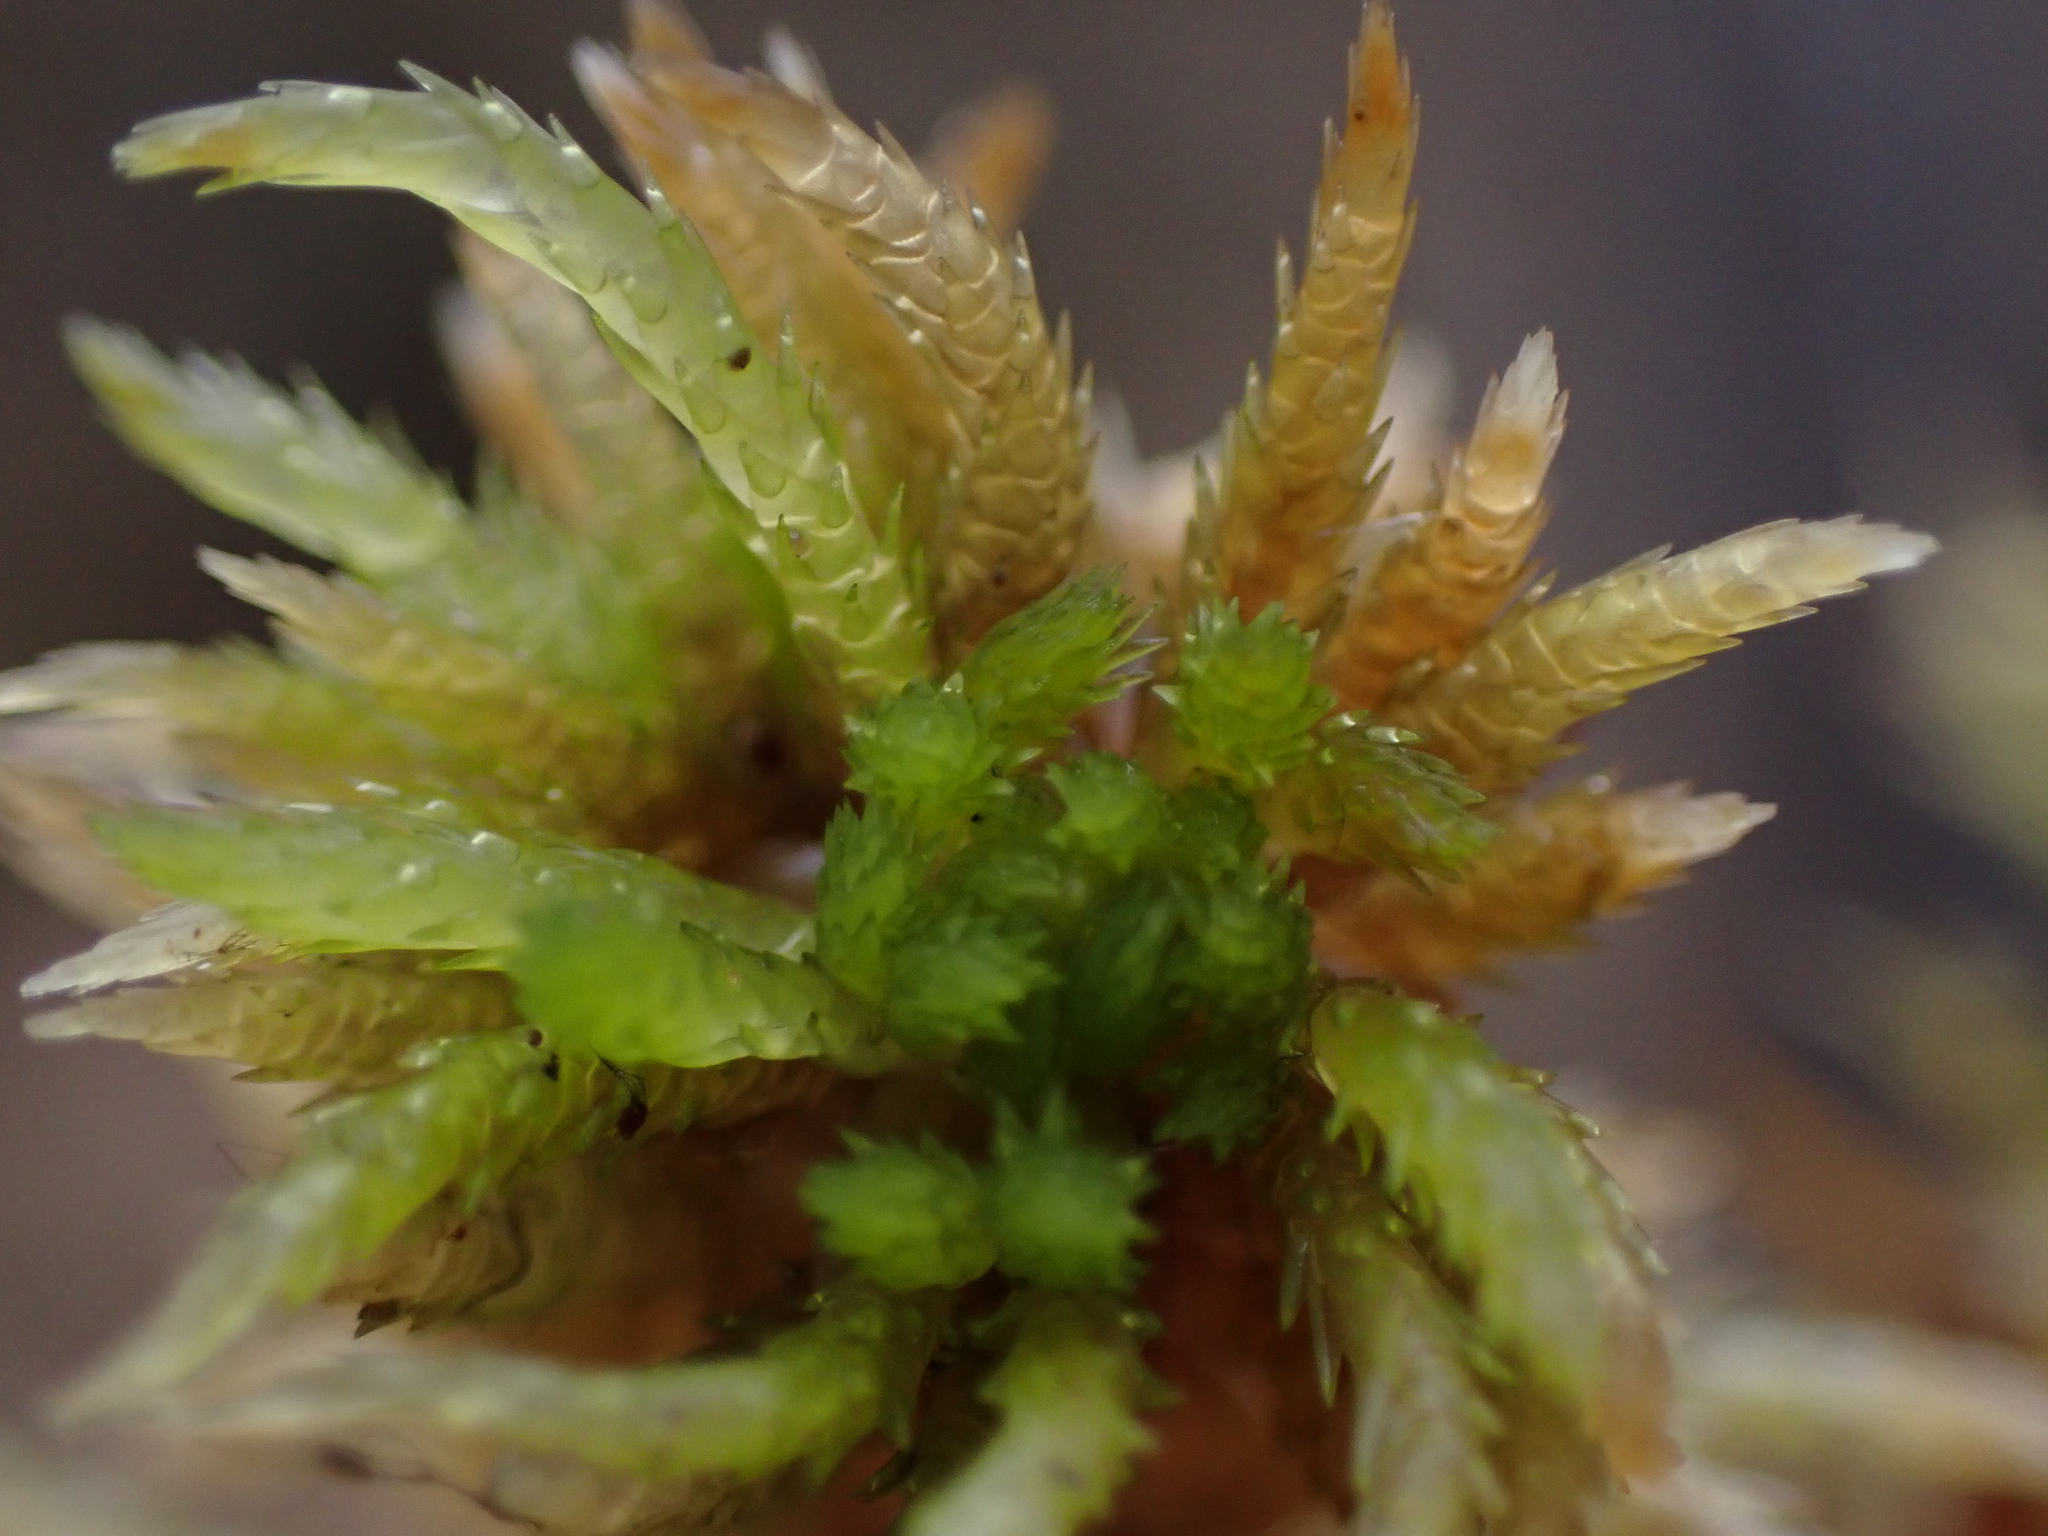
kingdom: Plantae
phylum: Bryophyta
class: Sphagnopsida
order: Sphagnales
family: Sphagnaceae
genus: Sphagnum
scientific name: Sphagnum squarrosum
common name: Shaggy peat moss
